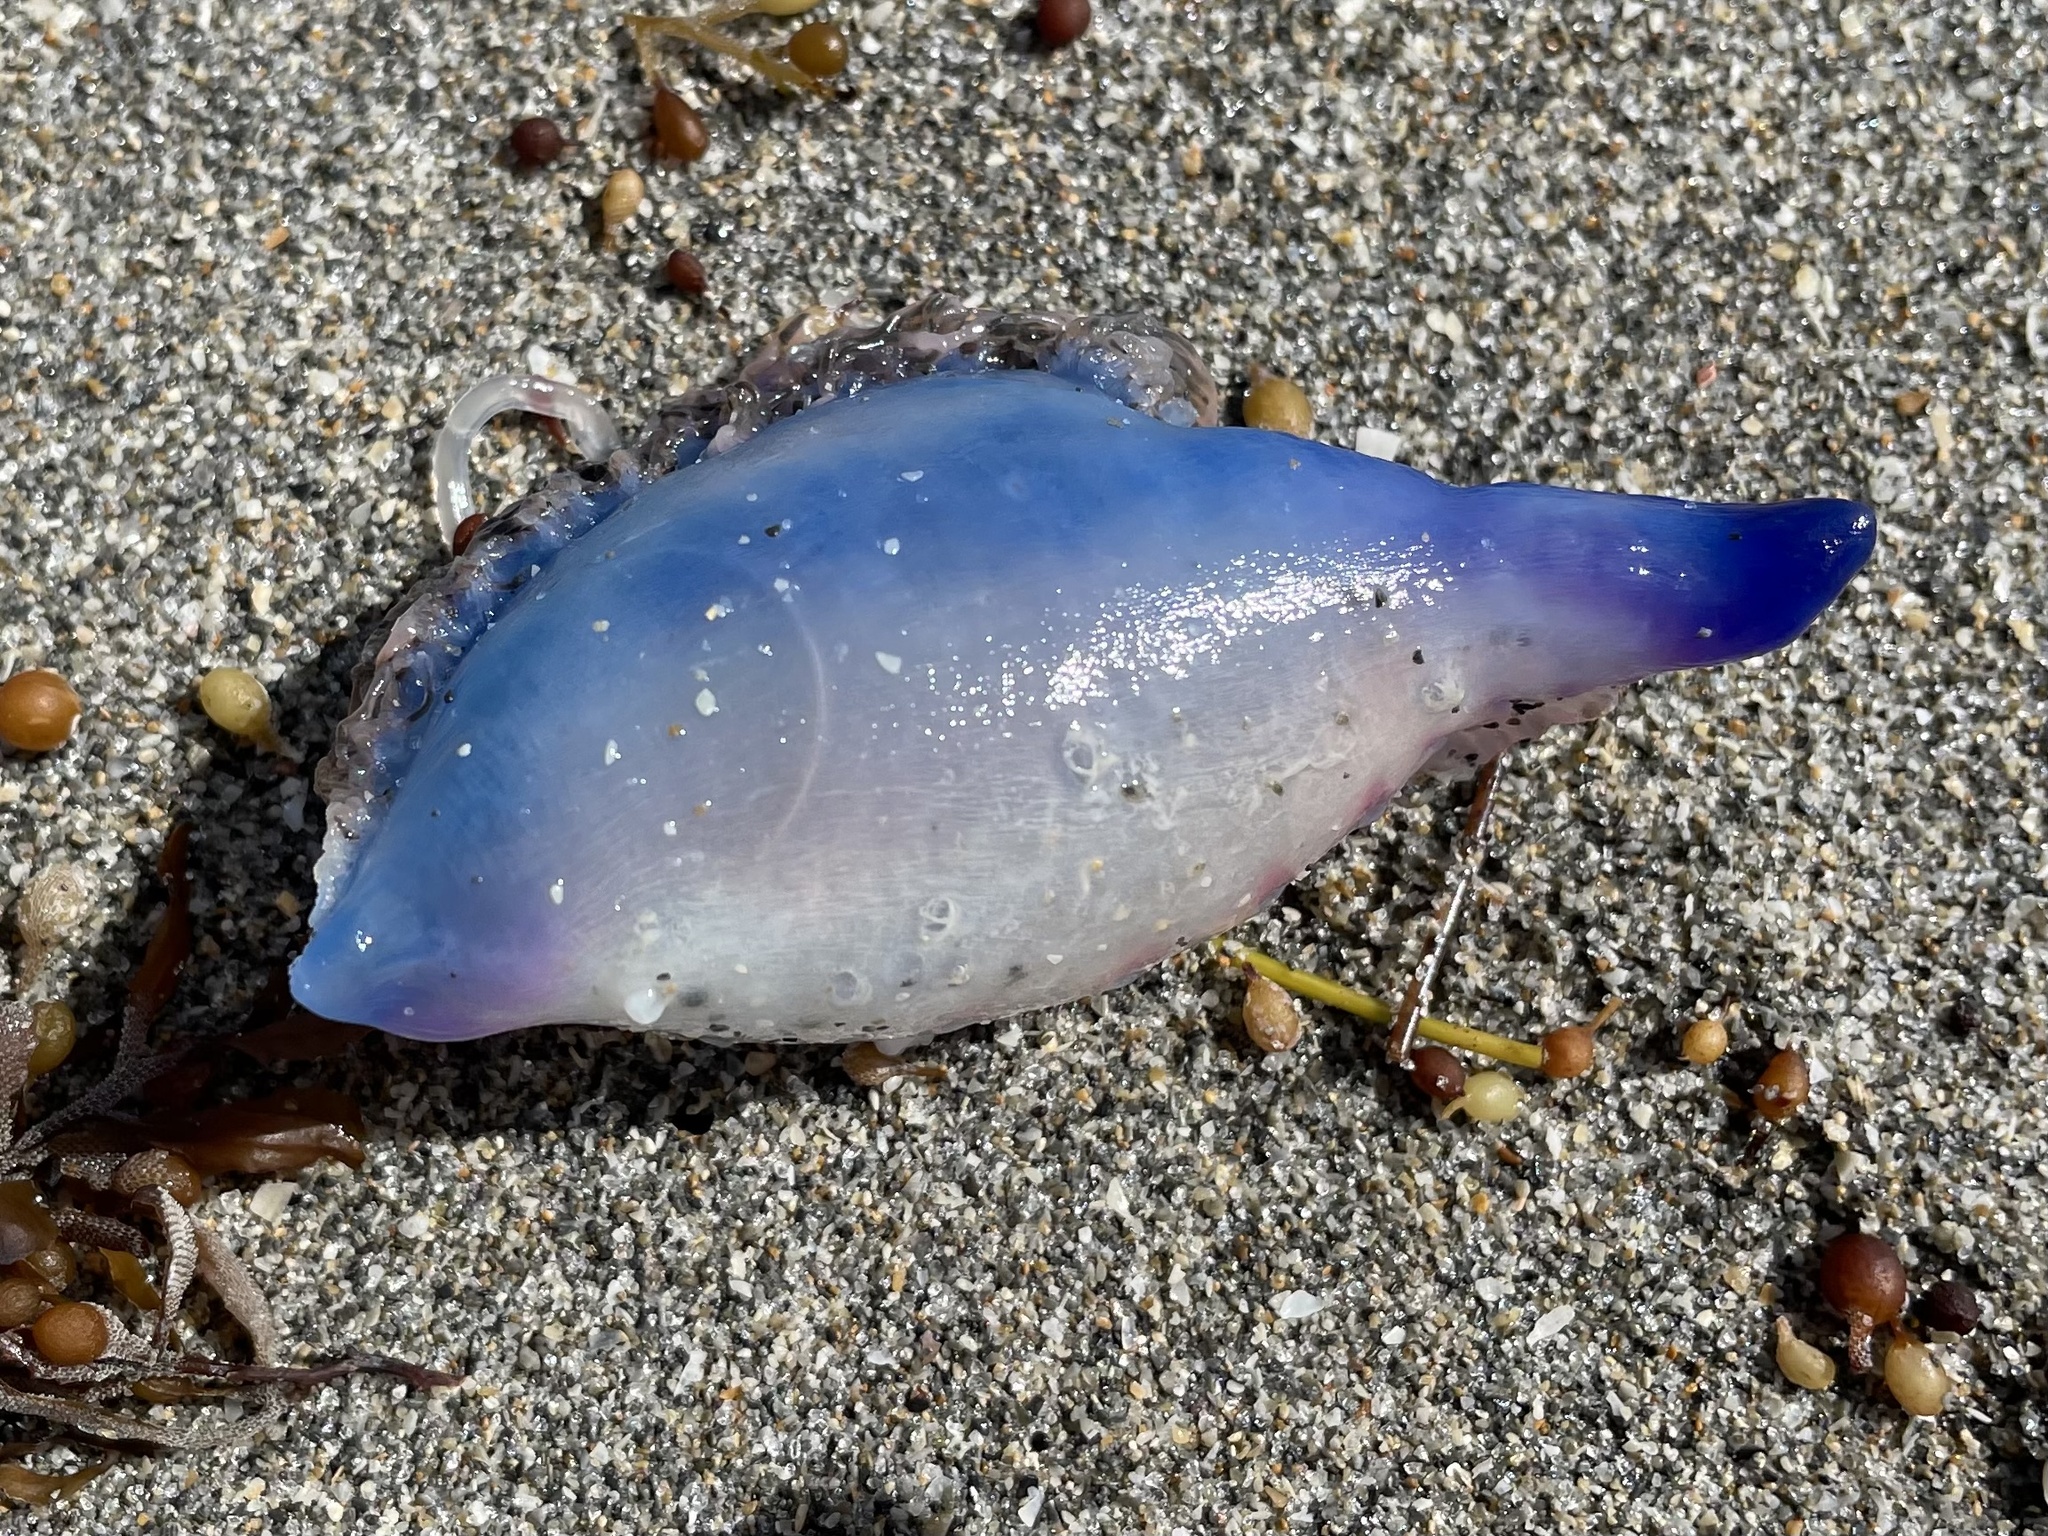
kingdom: Animalia
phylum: Cnidaria
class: Hydrozoa
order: Siphonophorae
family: Physaliidae
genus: Physalia
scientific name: Physalia physalis
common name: Portuguese man-of-war
